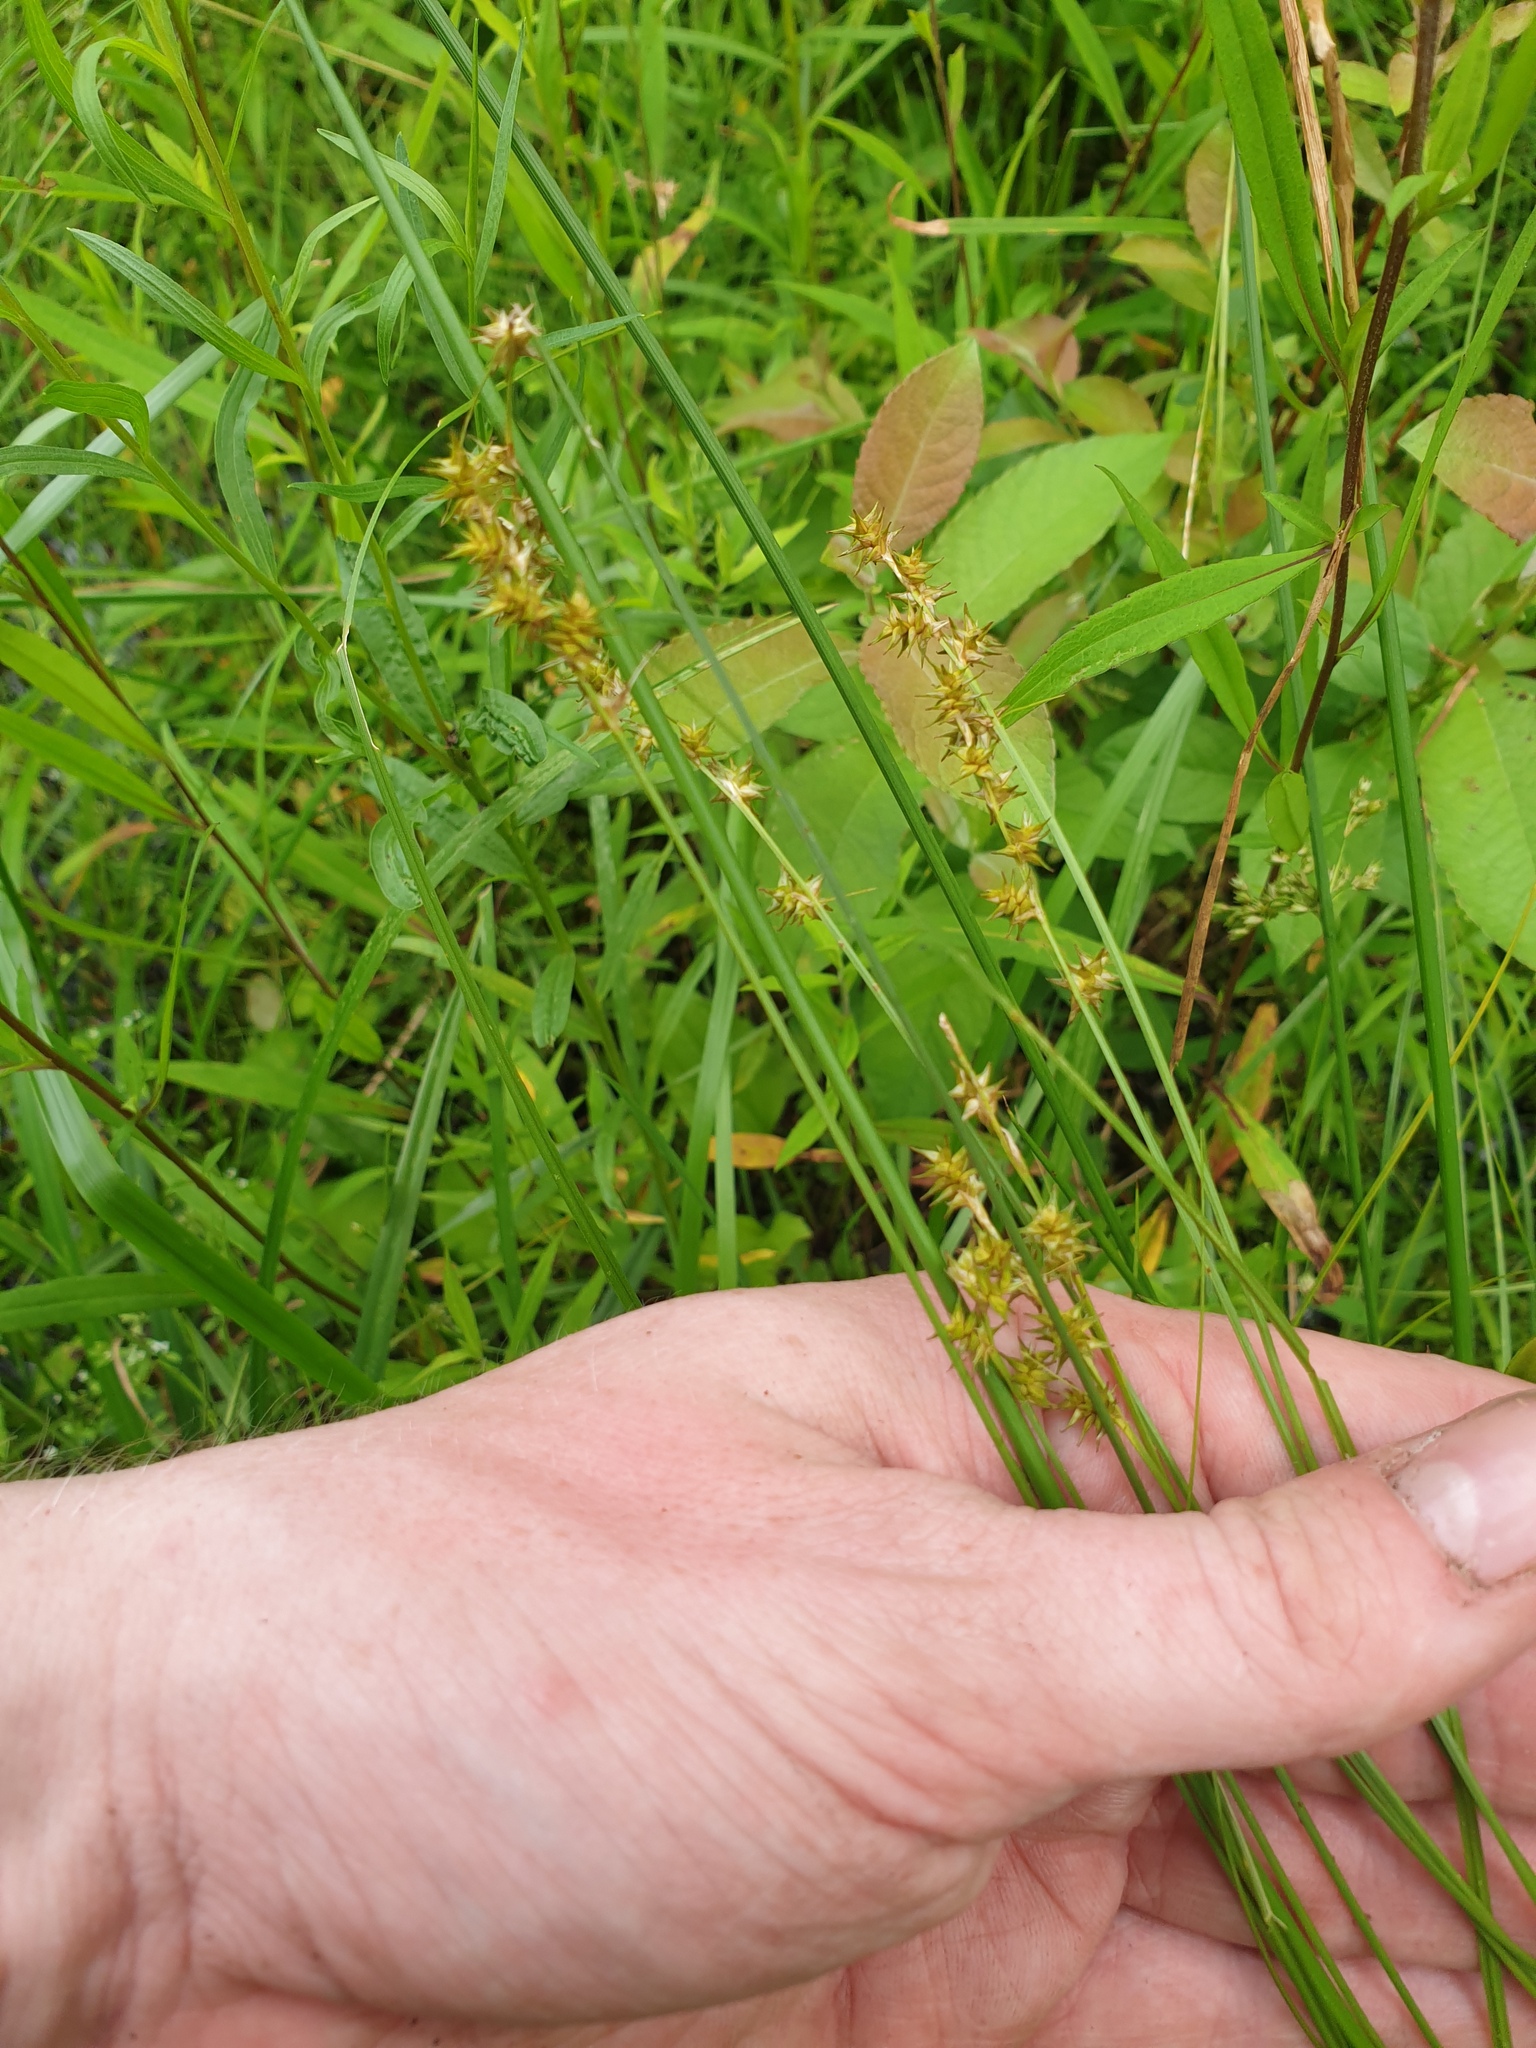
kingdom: Plantae
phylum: Tracheophyta
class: Liliopsida
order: Poales
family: Cyperaceae
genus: Carex
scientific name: Carex echinata
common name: Star sedge
